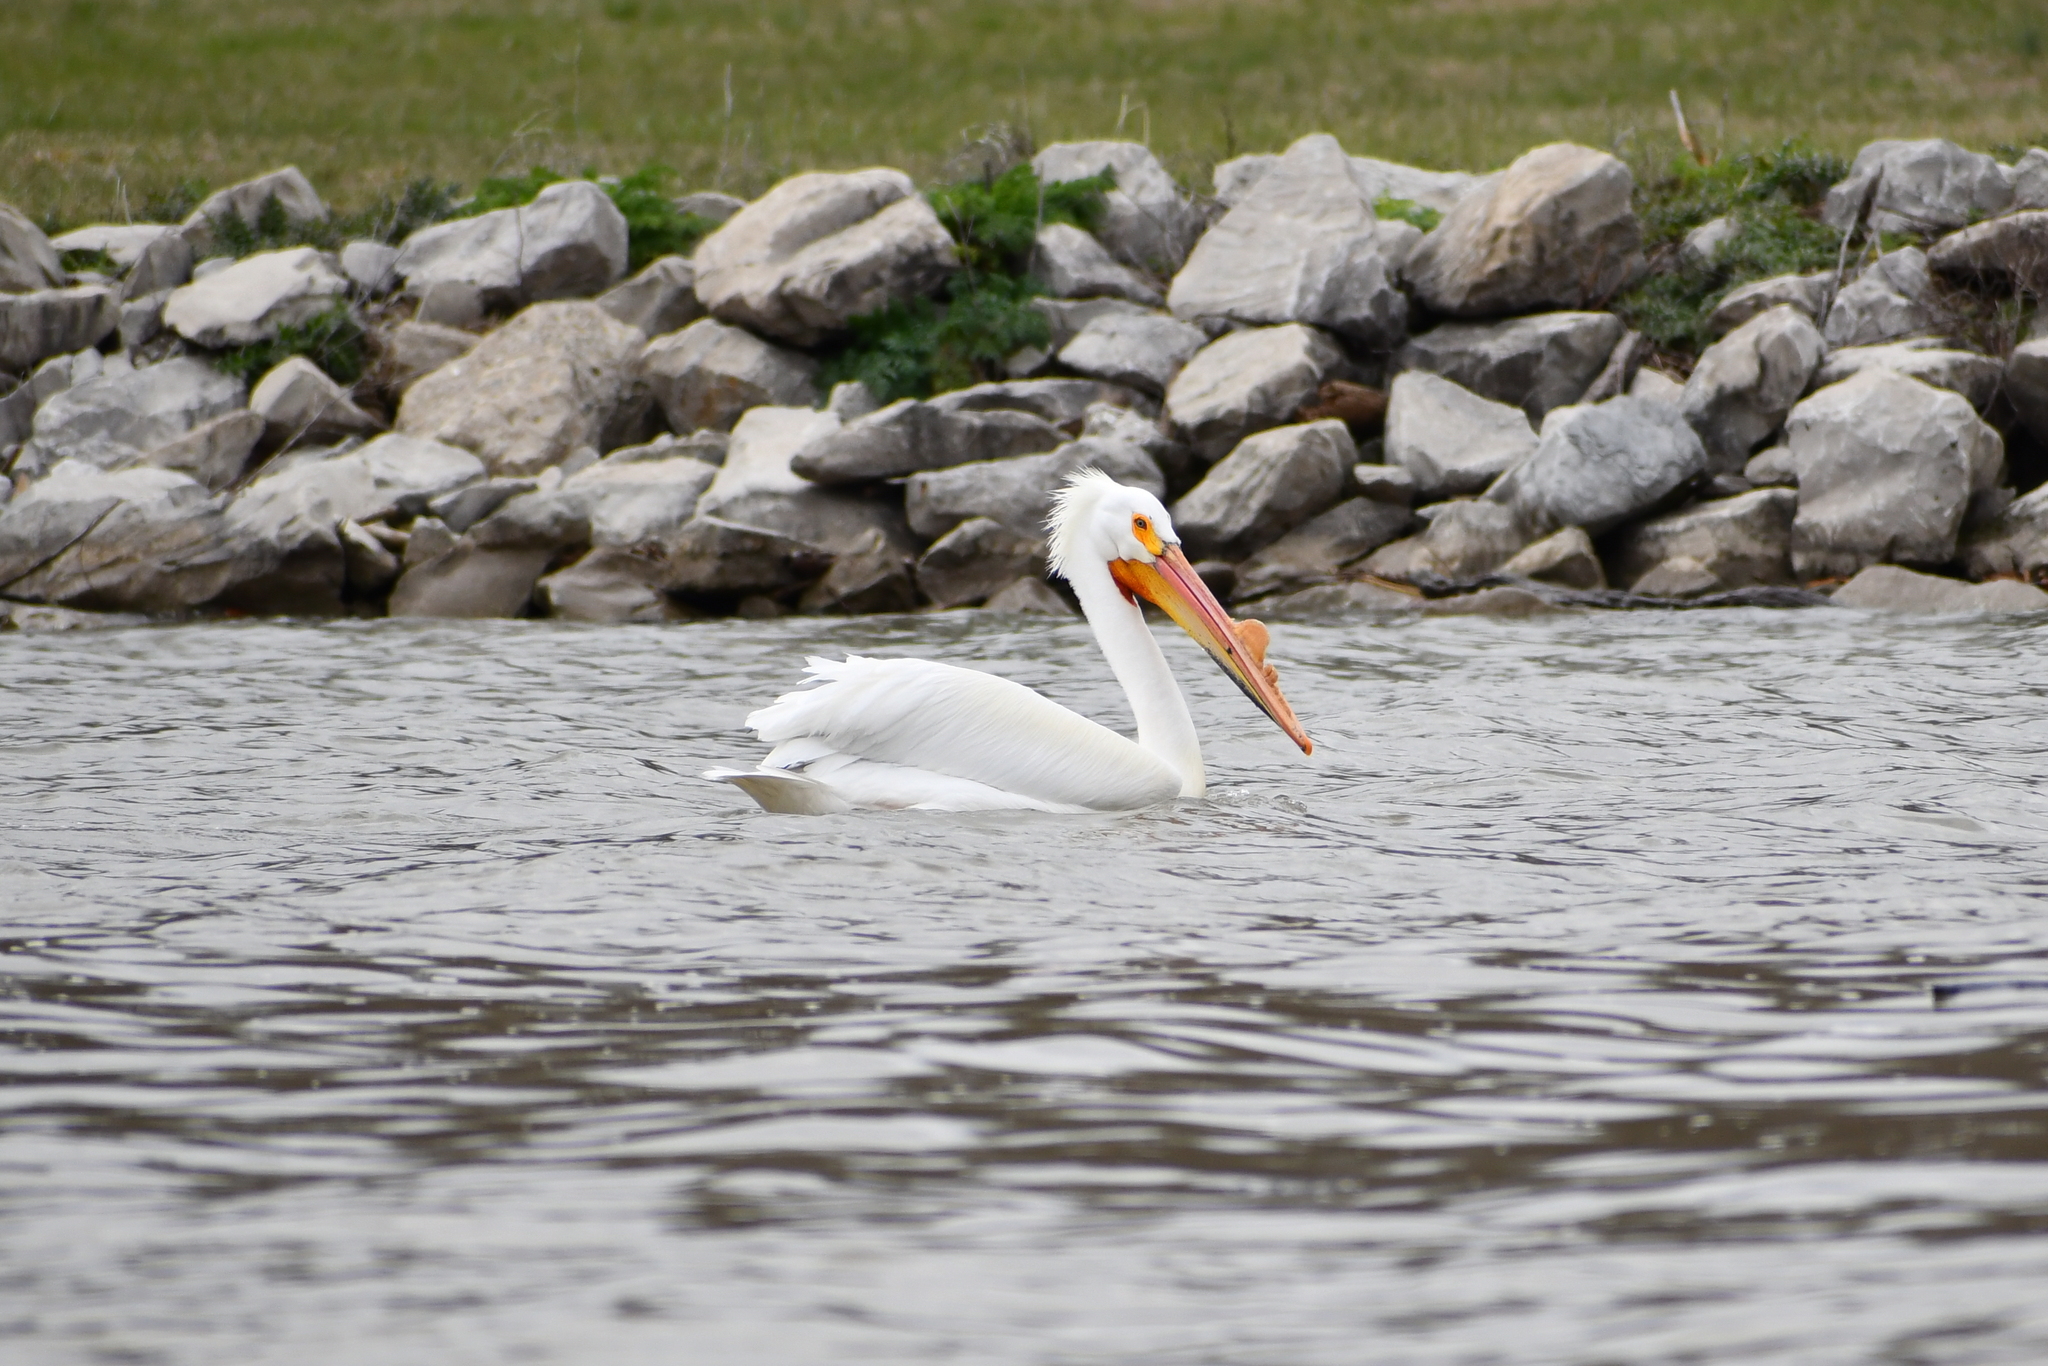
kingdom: Animalia
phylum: Chordata
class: Aves
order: Pelecaniformes
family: Pelecanidae
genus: Pelecanus
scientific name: Pelecanus erythrorhynchos
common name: American white pelican
